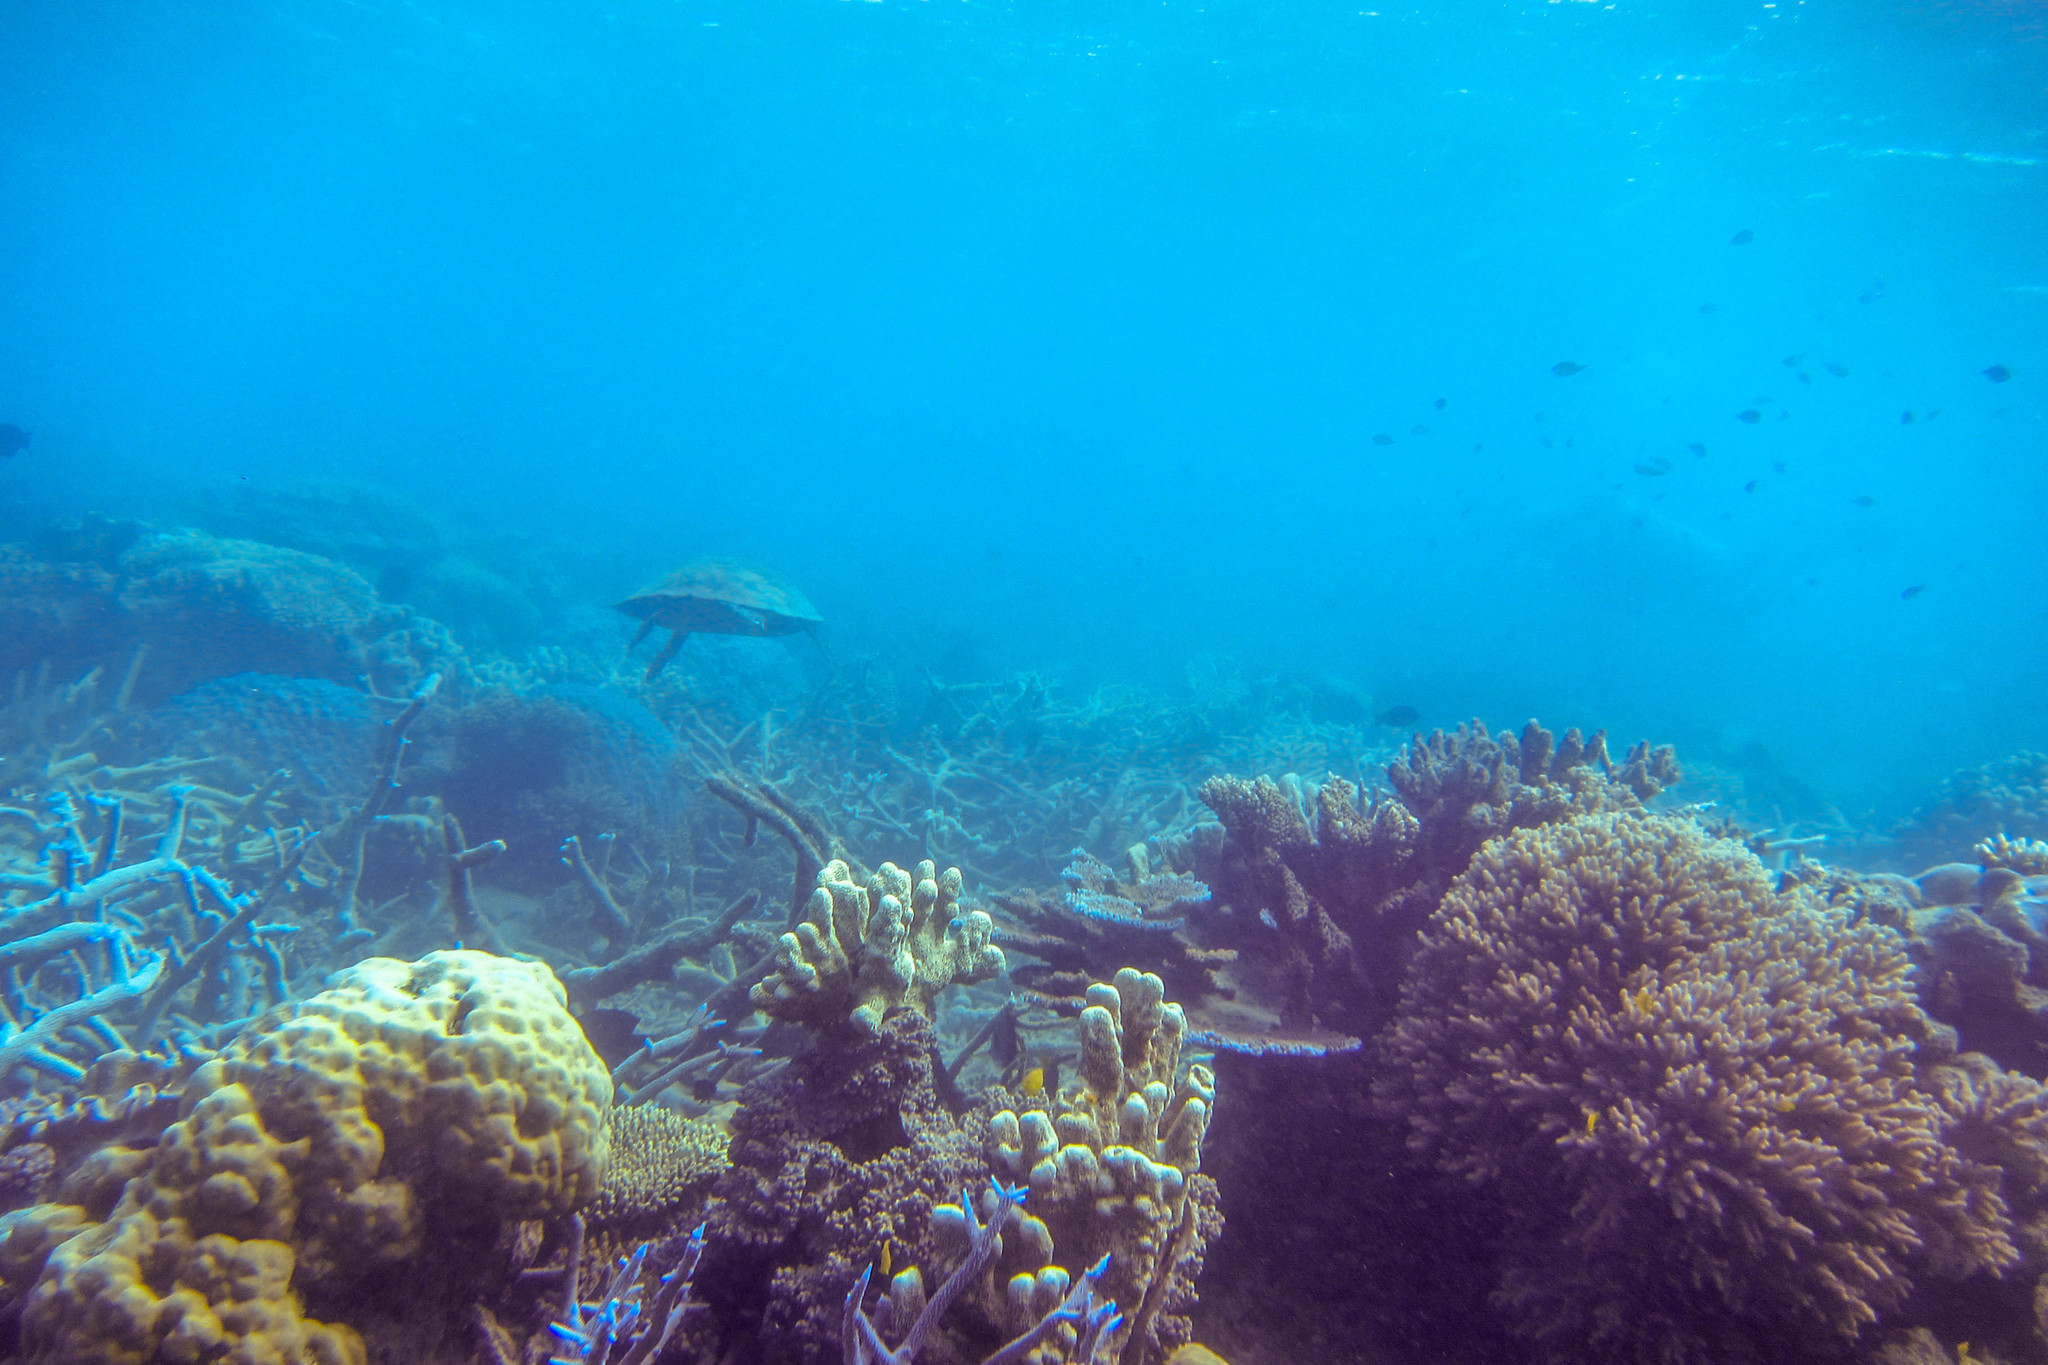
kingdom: Animalia
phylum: Chordata
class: Testudines
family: Cheloniidae
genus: Chelonia
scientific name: Chelonia mydas
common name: Green turtle
